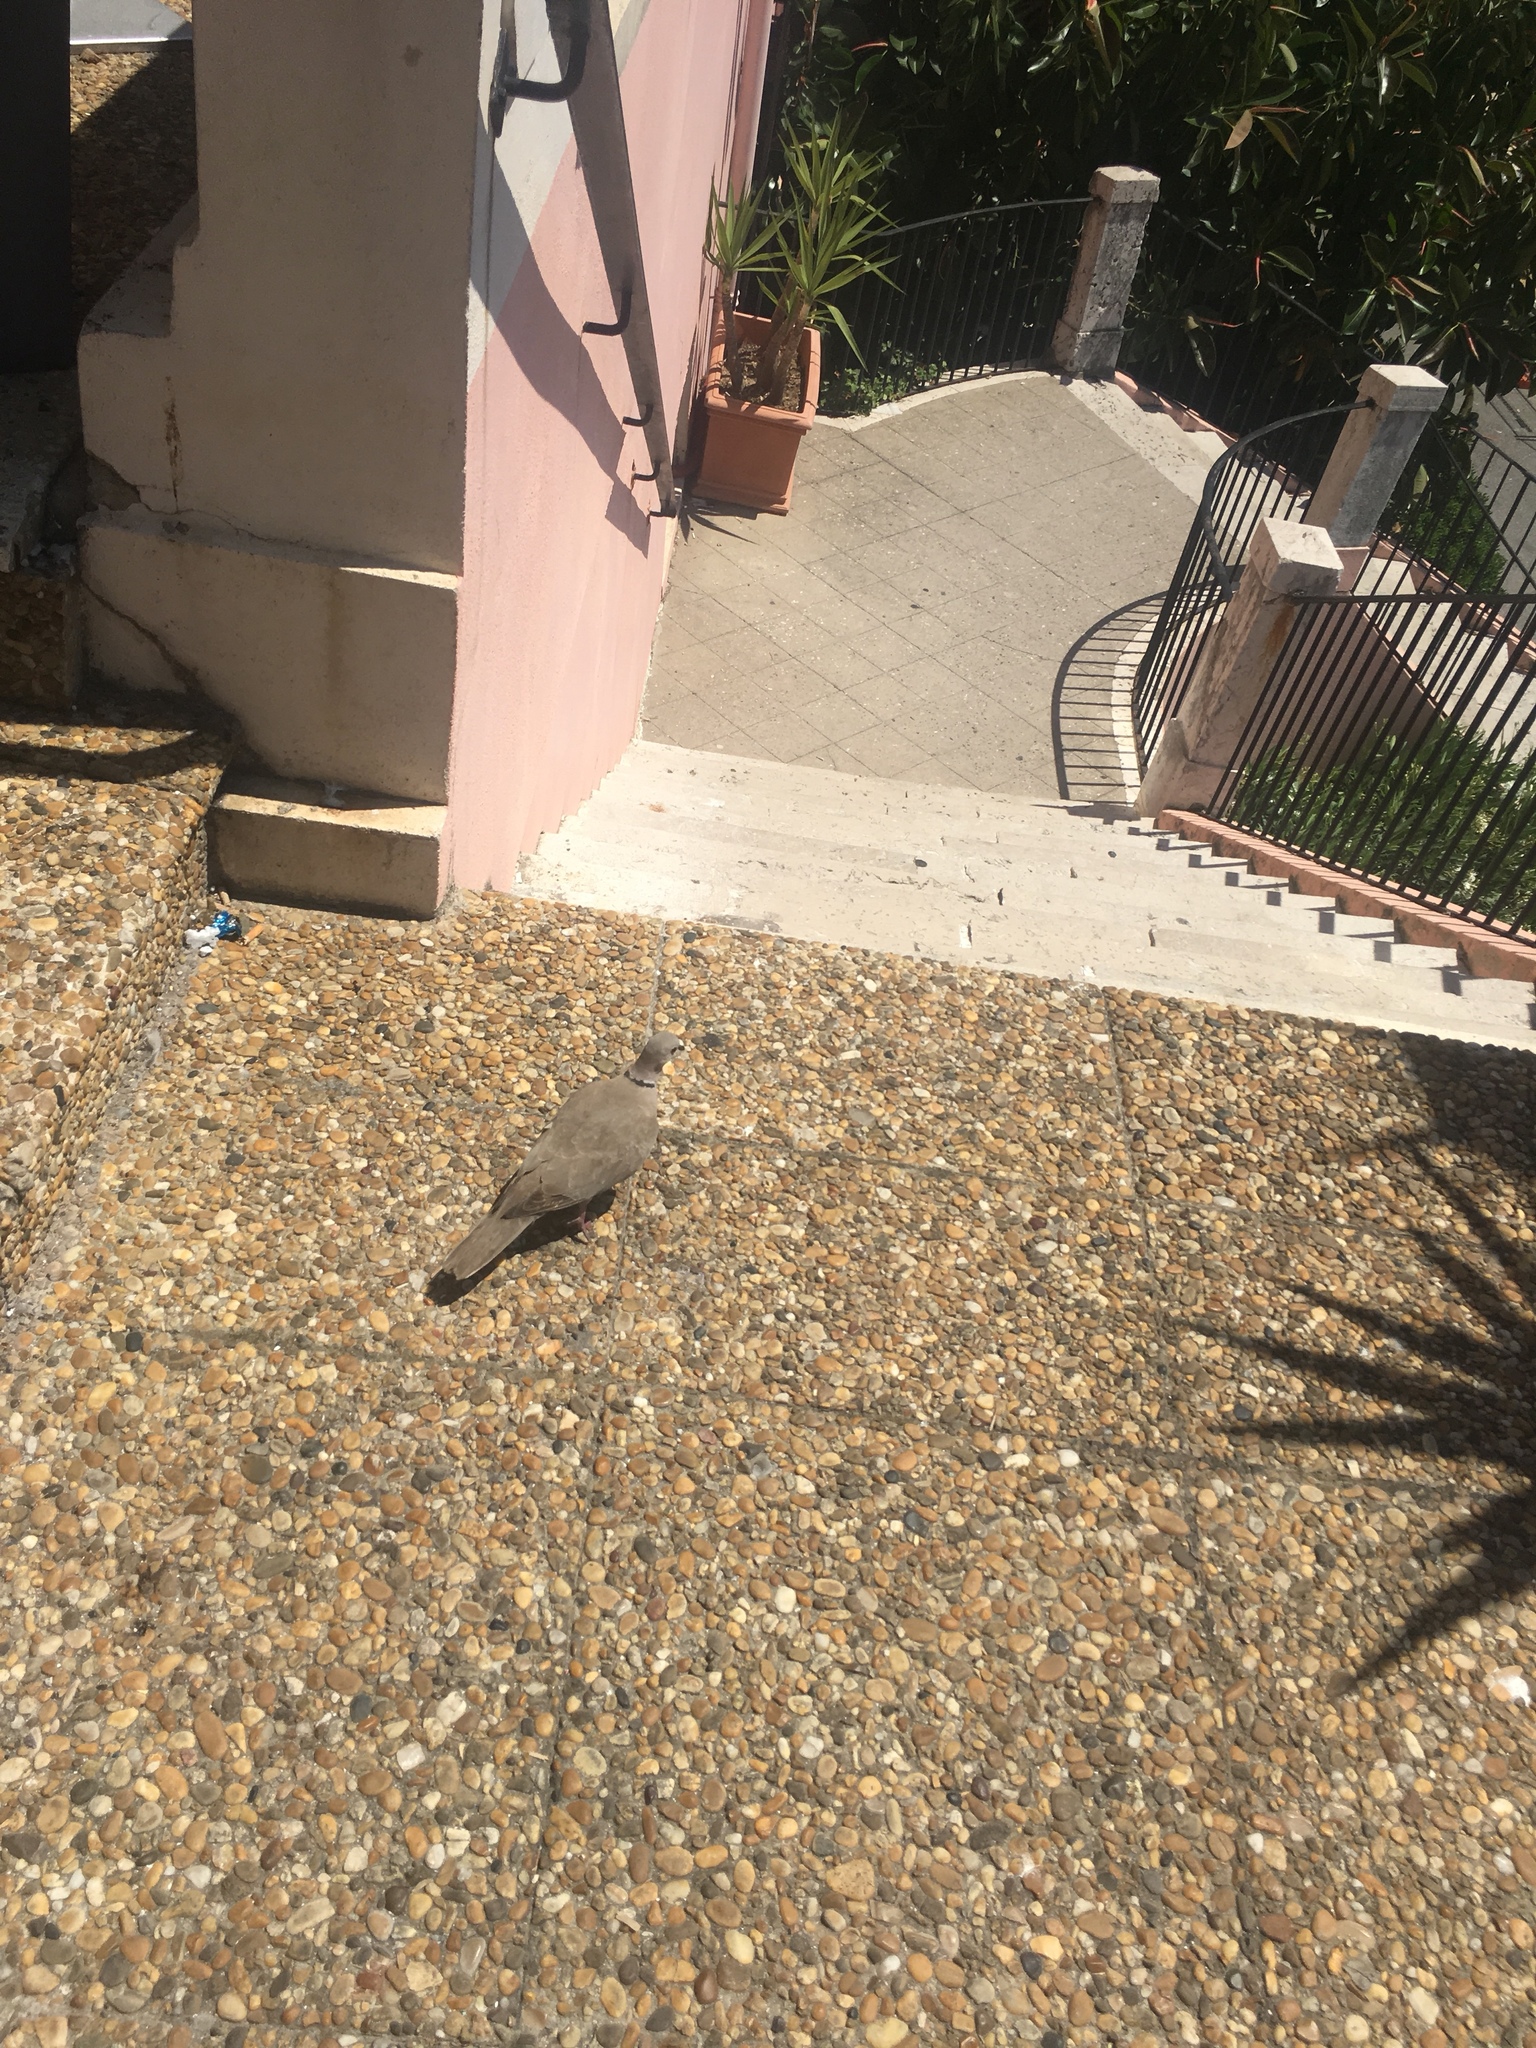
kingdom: Animalia
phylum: Chordata
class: Aves
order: Columbiformes
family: Columbidae
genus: Streptopelia
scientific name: Streptopelia decaocto
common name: Eurasian collared dove
